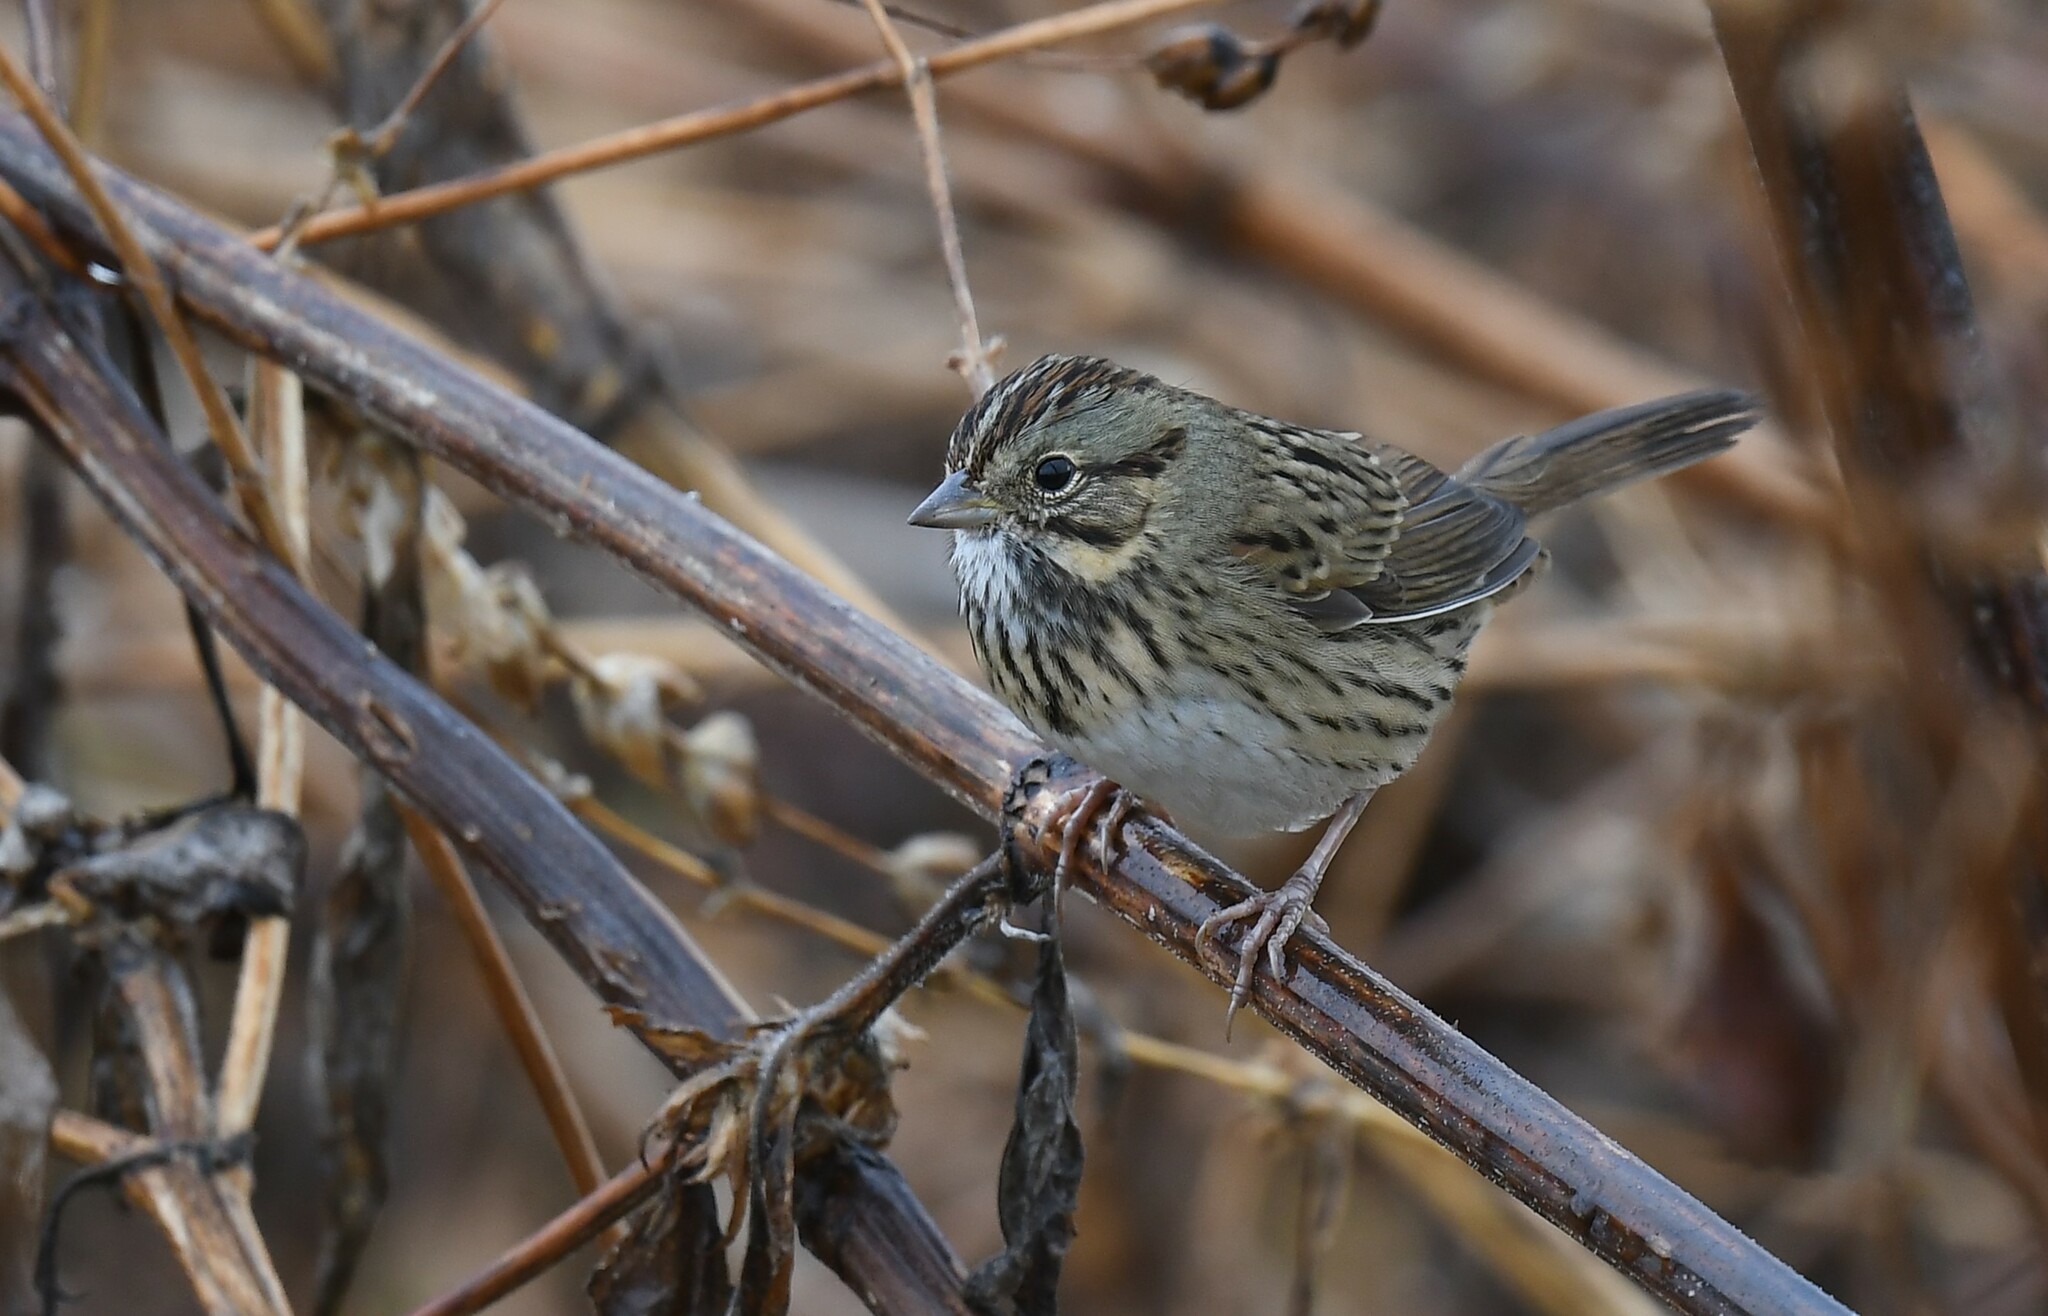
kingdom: Animalia
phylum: Chordata
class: Aves
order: Passeriformes
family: Passerellidae
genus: Melospiza
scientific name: Melospiza lincolnii
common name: Lincoln's sparrow
